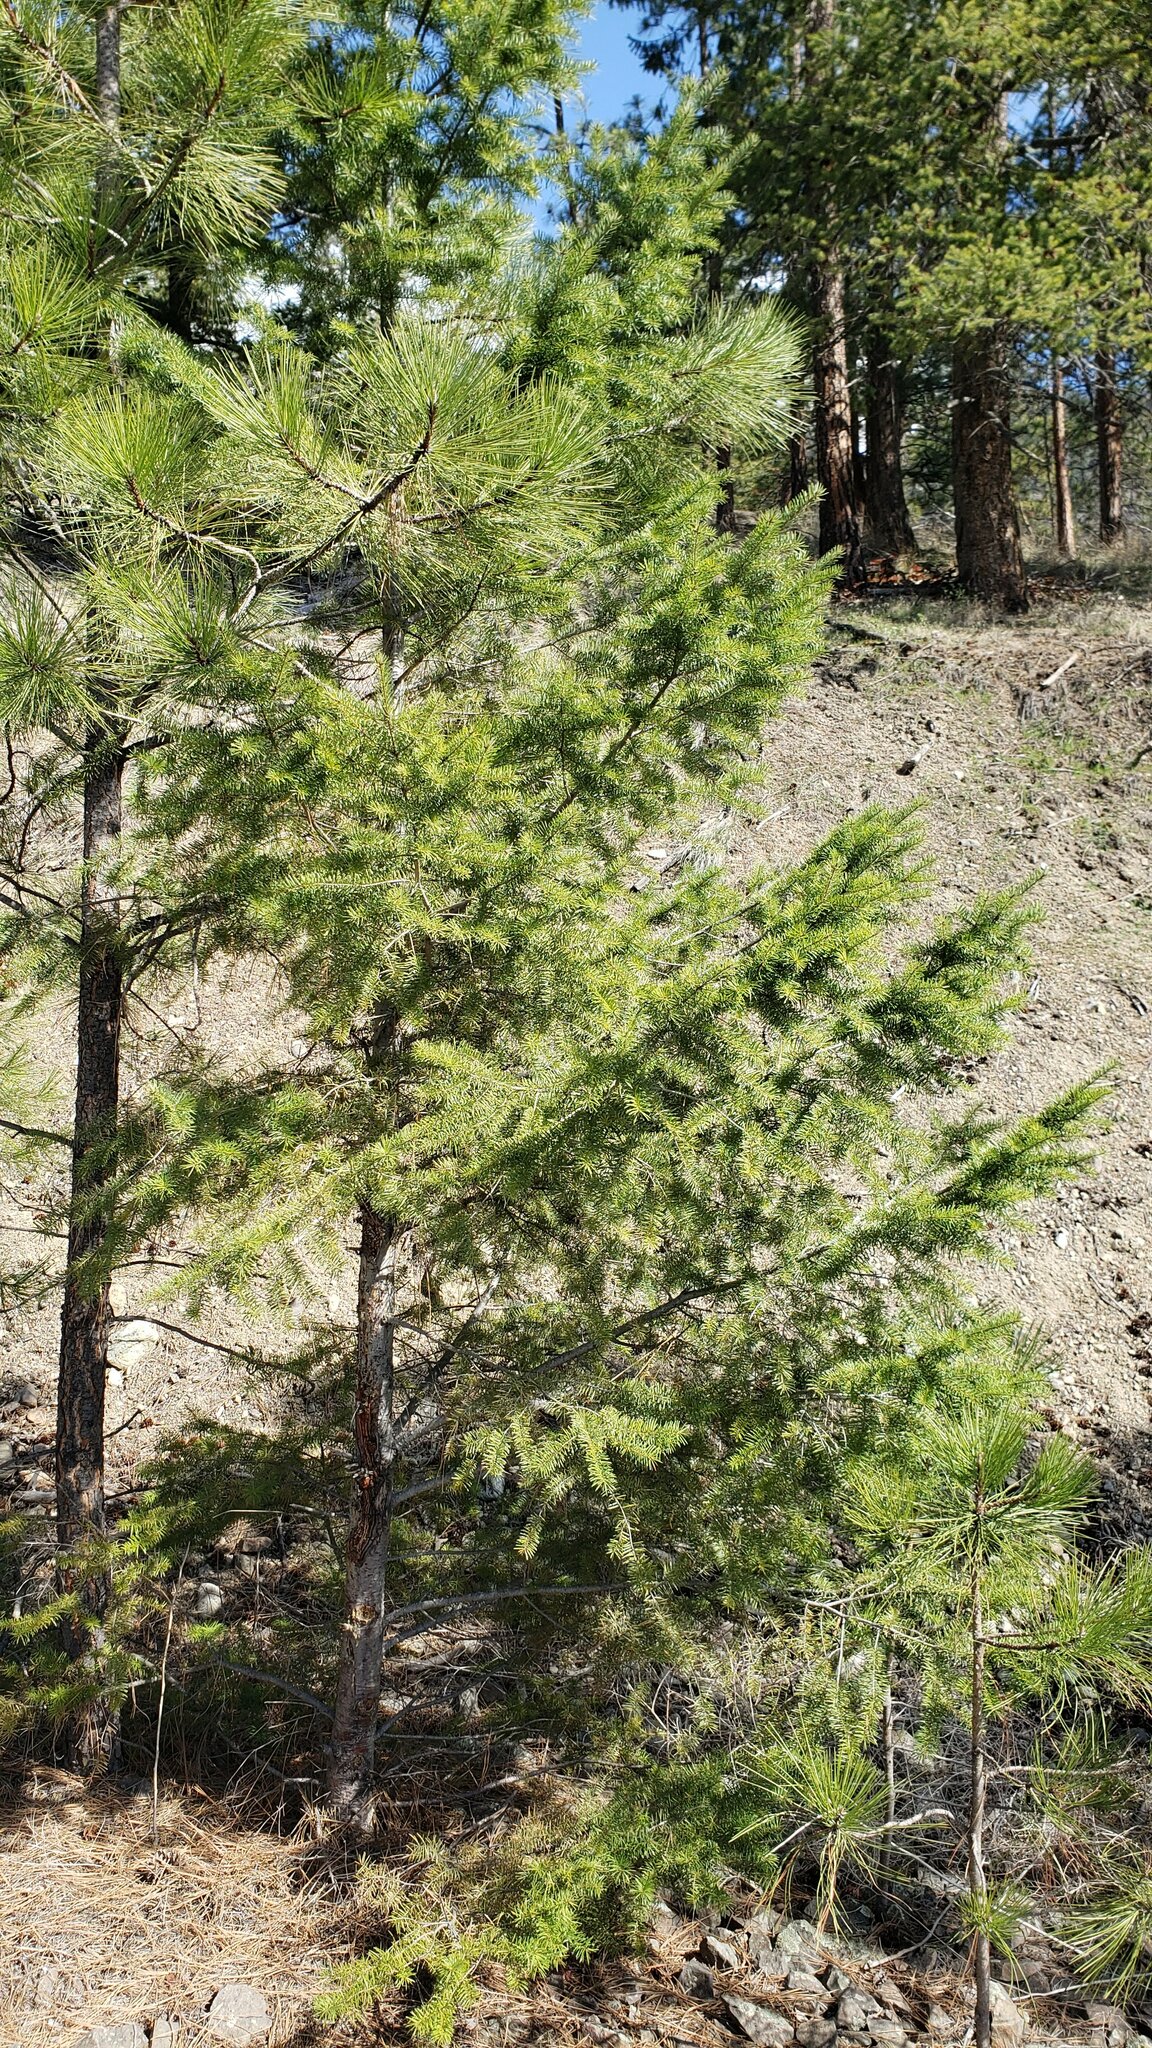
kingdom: Plantae
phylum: Tracheophyta
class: Pinopsida
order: Pinales
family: Pinaceae
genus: Pseudotsuga
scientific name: Pseudotsuga menziesii
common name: Douglas fir
